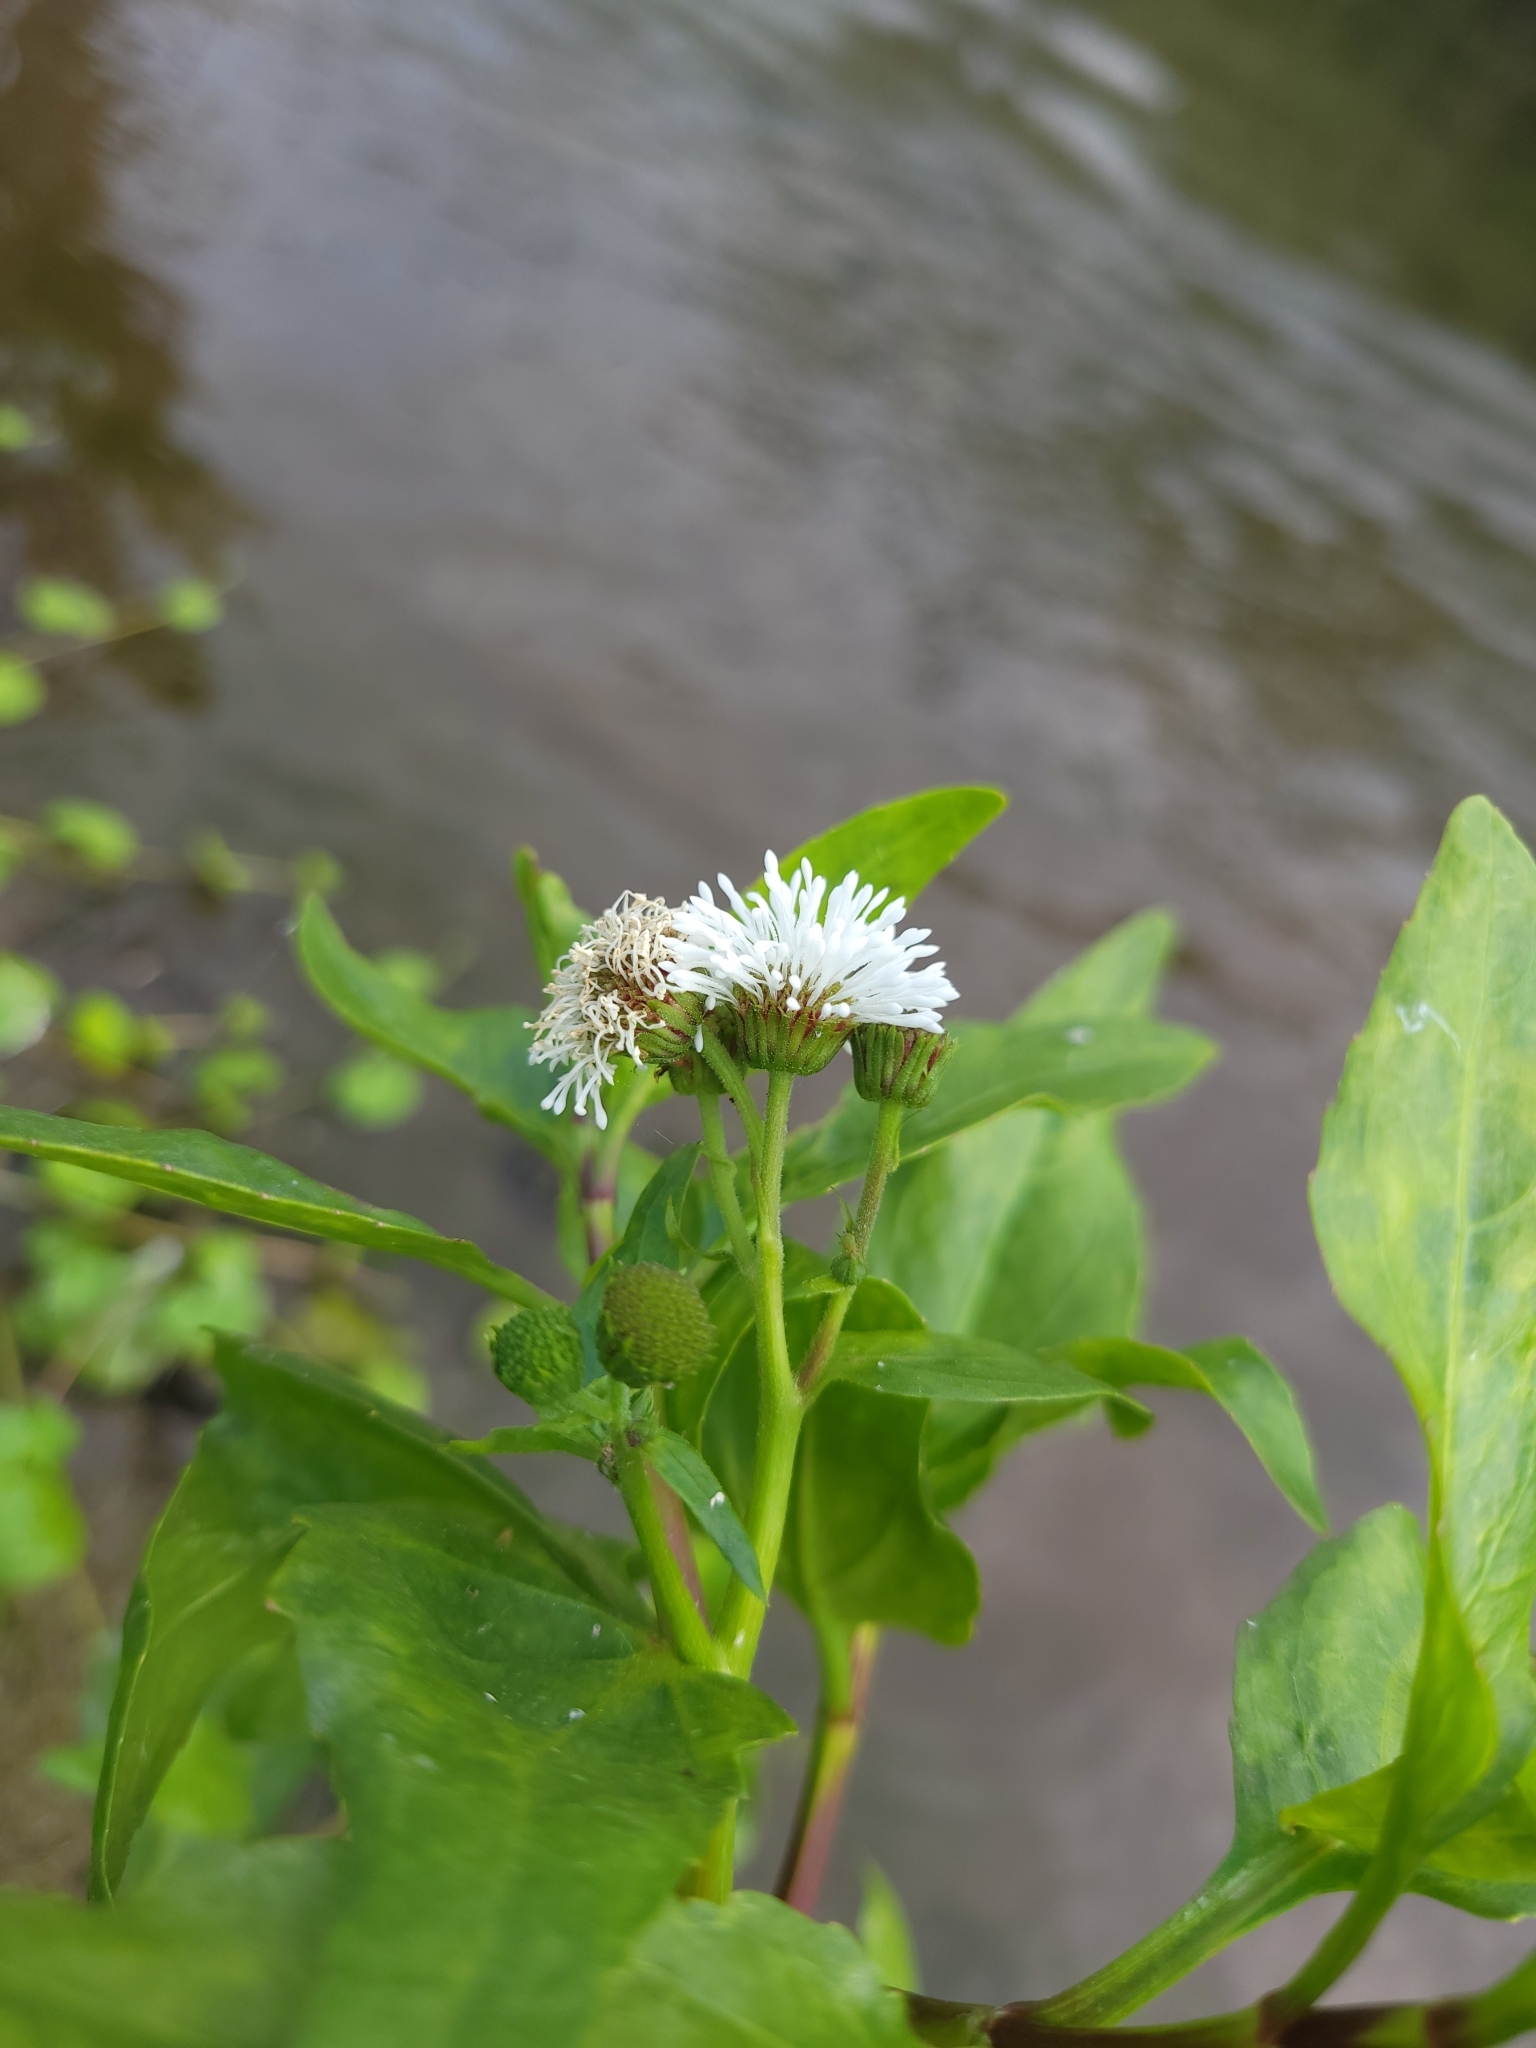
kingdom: Plantae
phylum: Tracheophyta
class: Magnoliopsida
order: Asterales
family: Asteraceae
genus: Gymnocoronis
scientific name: Gymnocoronis spilanthoides
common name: Senegal teaplant
